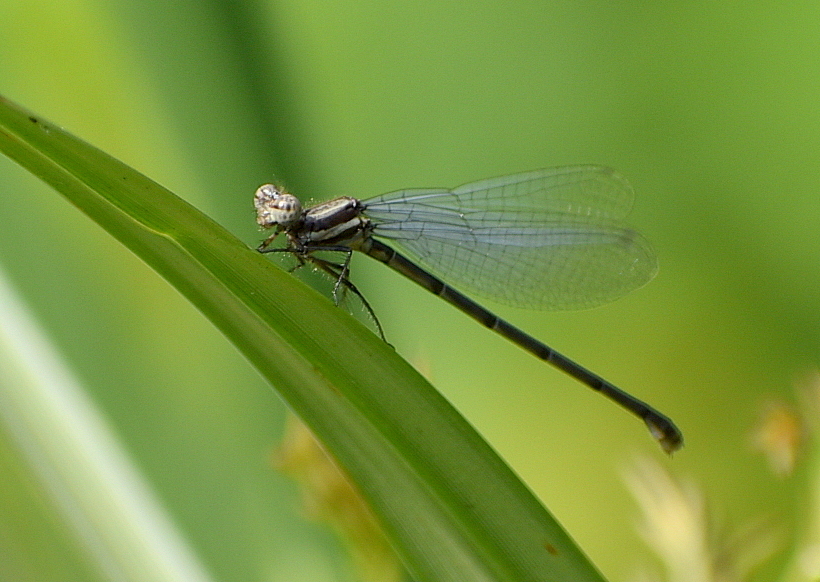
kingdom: Animalia
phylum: Arthropoda
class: Insecta
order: Odonata
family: Platycnemididae
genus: Onychargia
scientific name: Onychargia atrocyana
